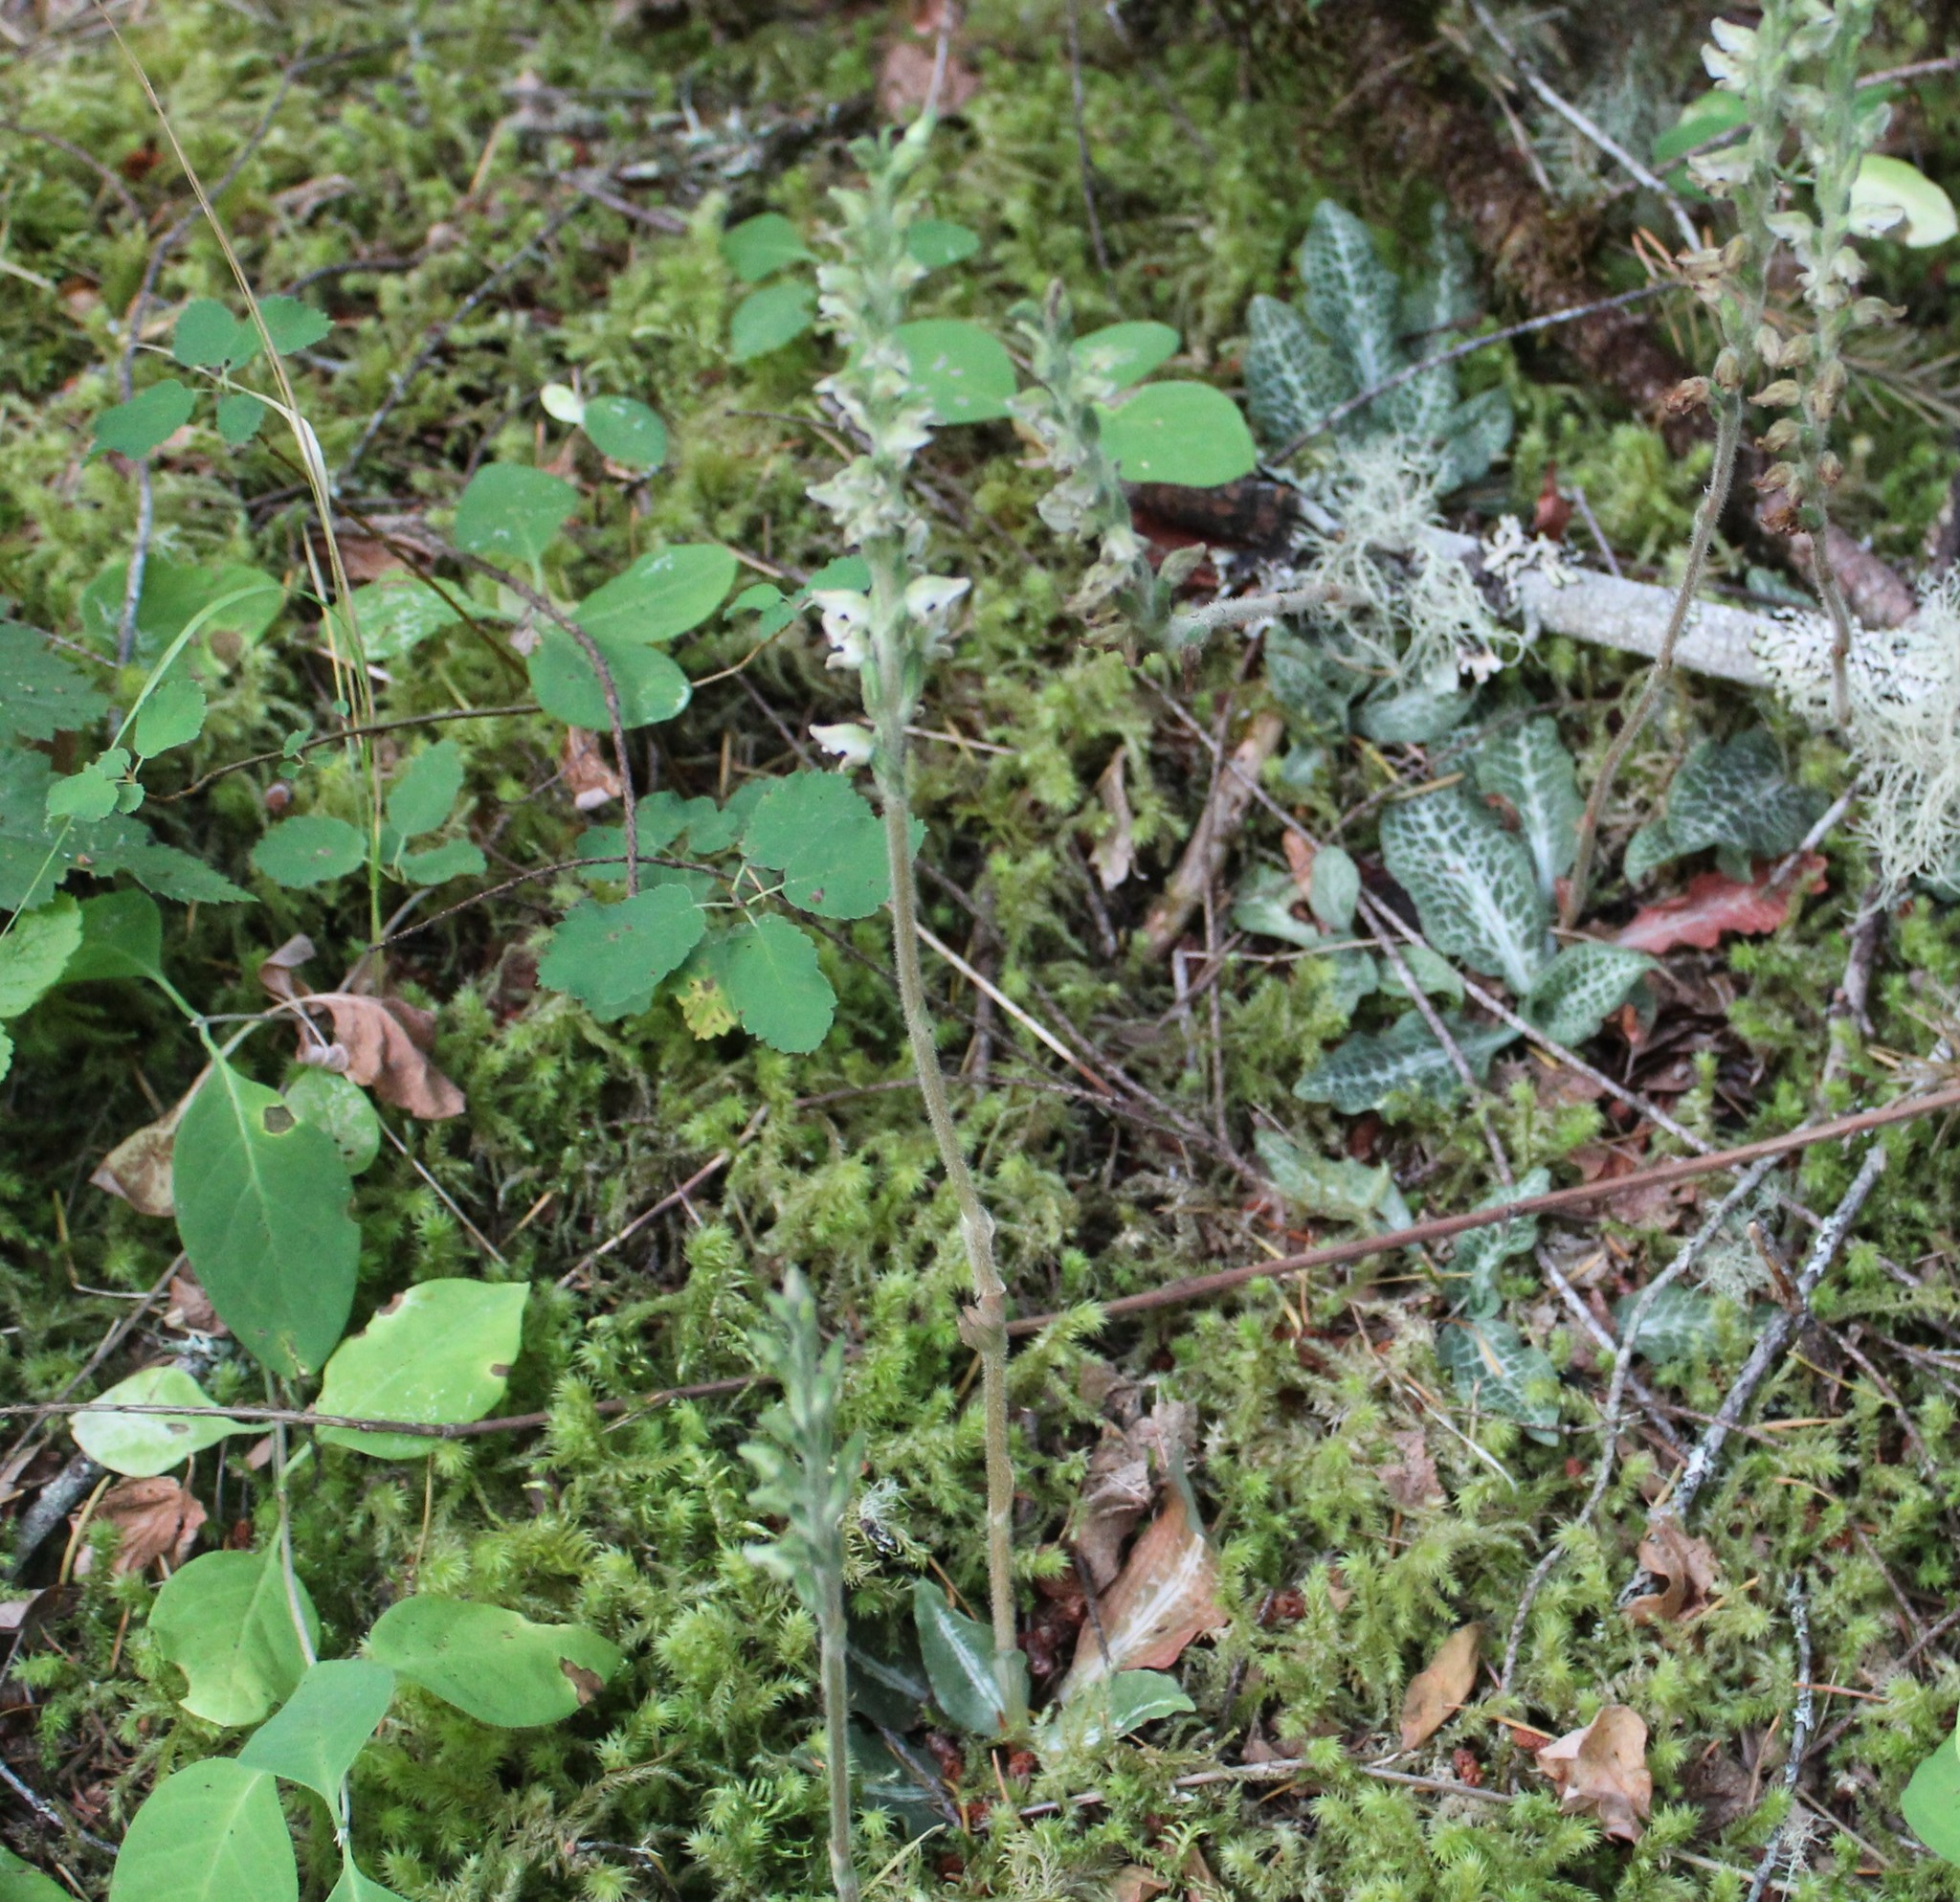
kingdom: Plantae
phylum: Tracheophyta
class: Liliopsida
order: Asparagales
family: Orchidaceae
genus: Goodyera
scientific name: Goodyera oblongifolia
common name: Giant rattlesnake-plantain
